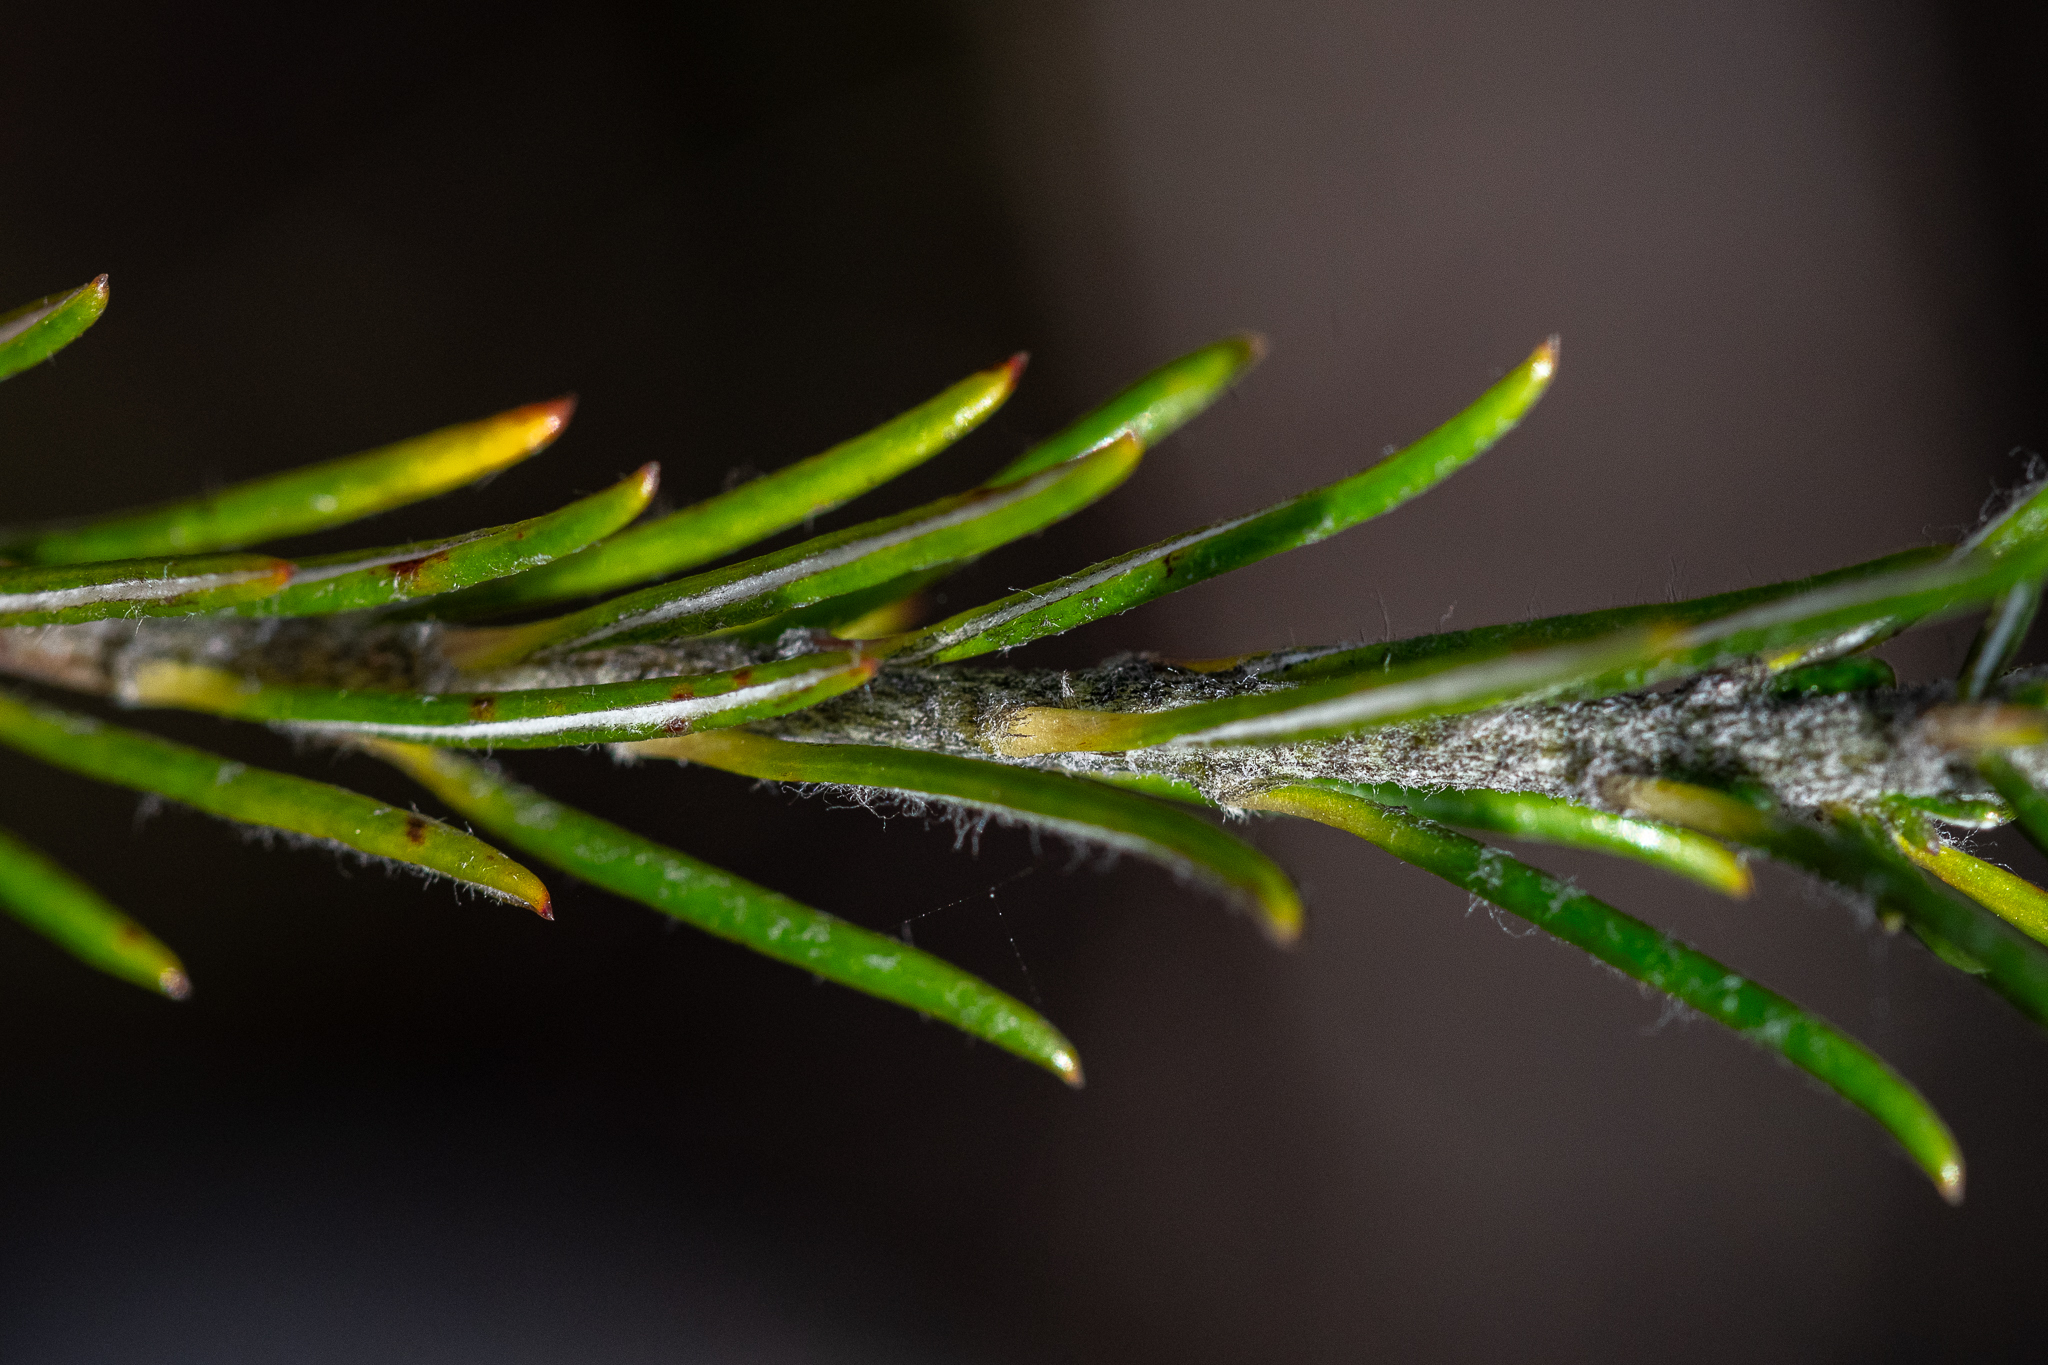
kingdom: Plantae
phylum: Tracheophyta
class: Magnoliopsida
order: Asterales
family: Asteraceae
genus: Metalasia
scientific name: Metalasia erubescens
